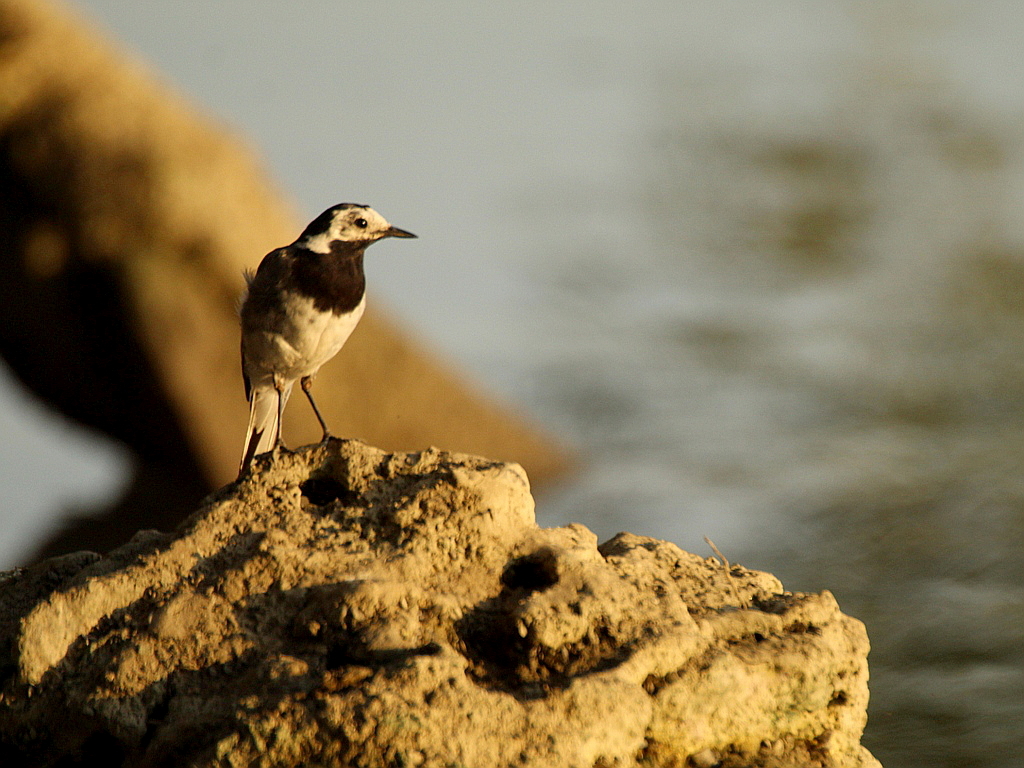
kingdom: Animalia
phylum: Chordata
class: Aves
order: Passeriformes
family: Motacillidae
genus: Motacilla
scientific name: Motacilla alba
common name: White wagtail
